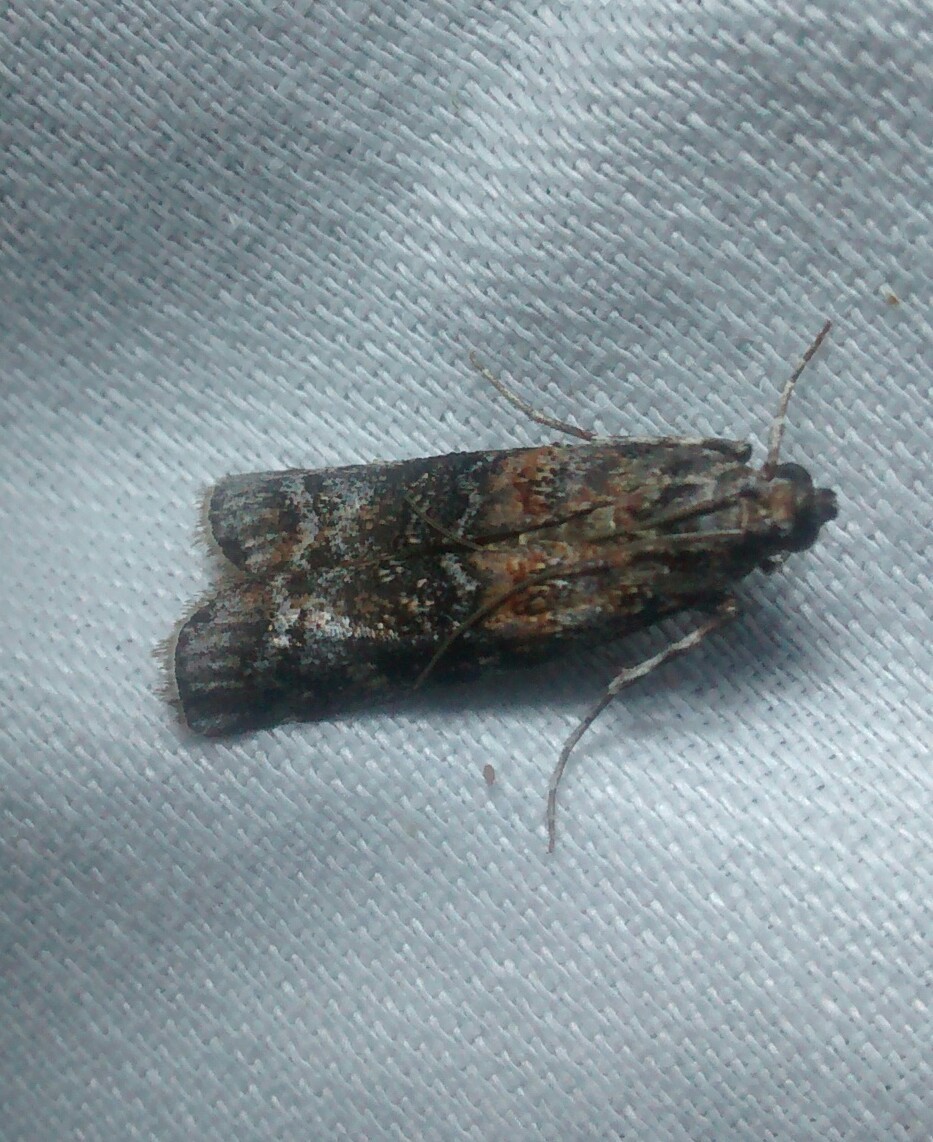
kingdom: Animalia
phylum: Arthropoda
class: Insecta
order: Lepidoptera
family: Pyralidae
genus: Dioryctria
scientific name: Dioryctria zimmermani
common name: Zimmerman pine moth
